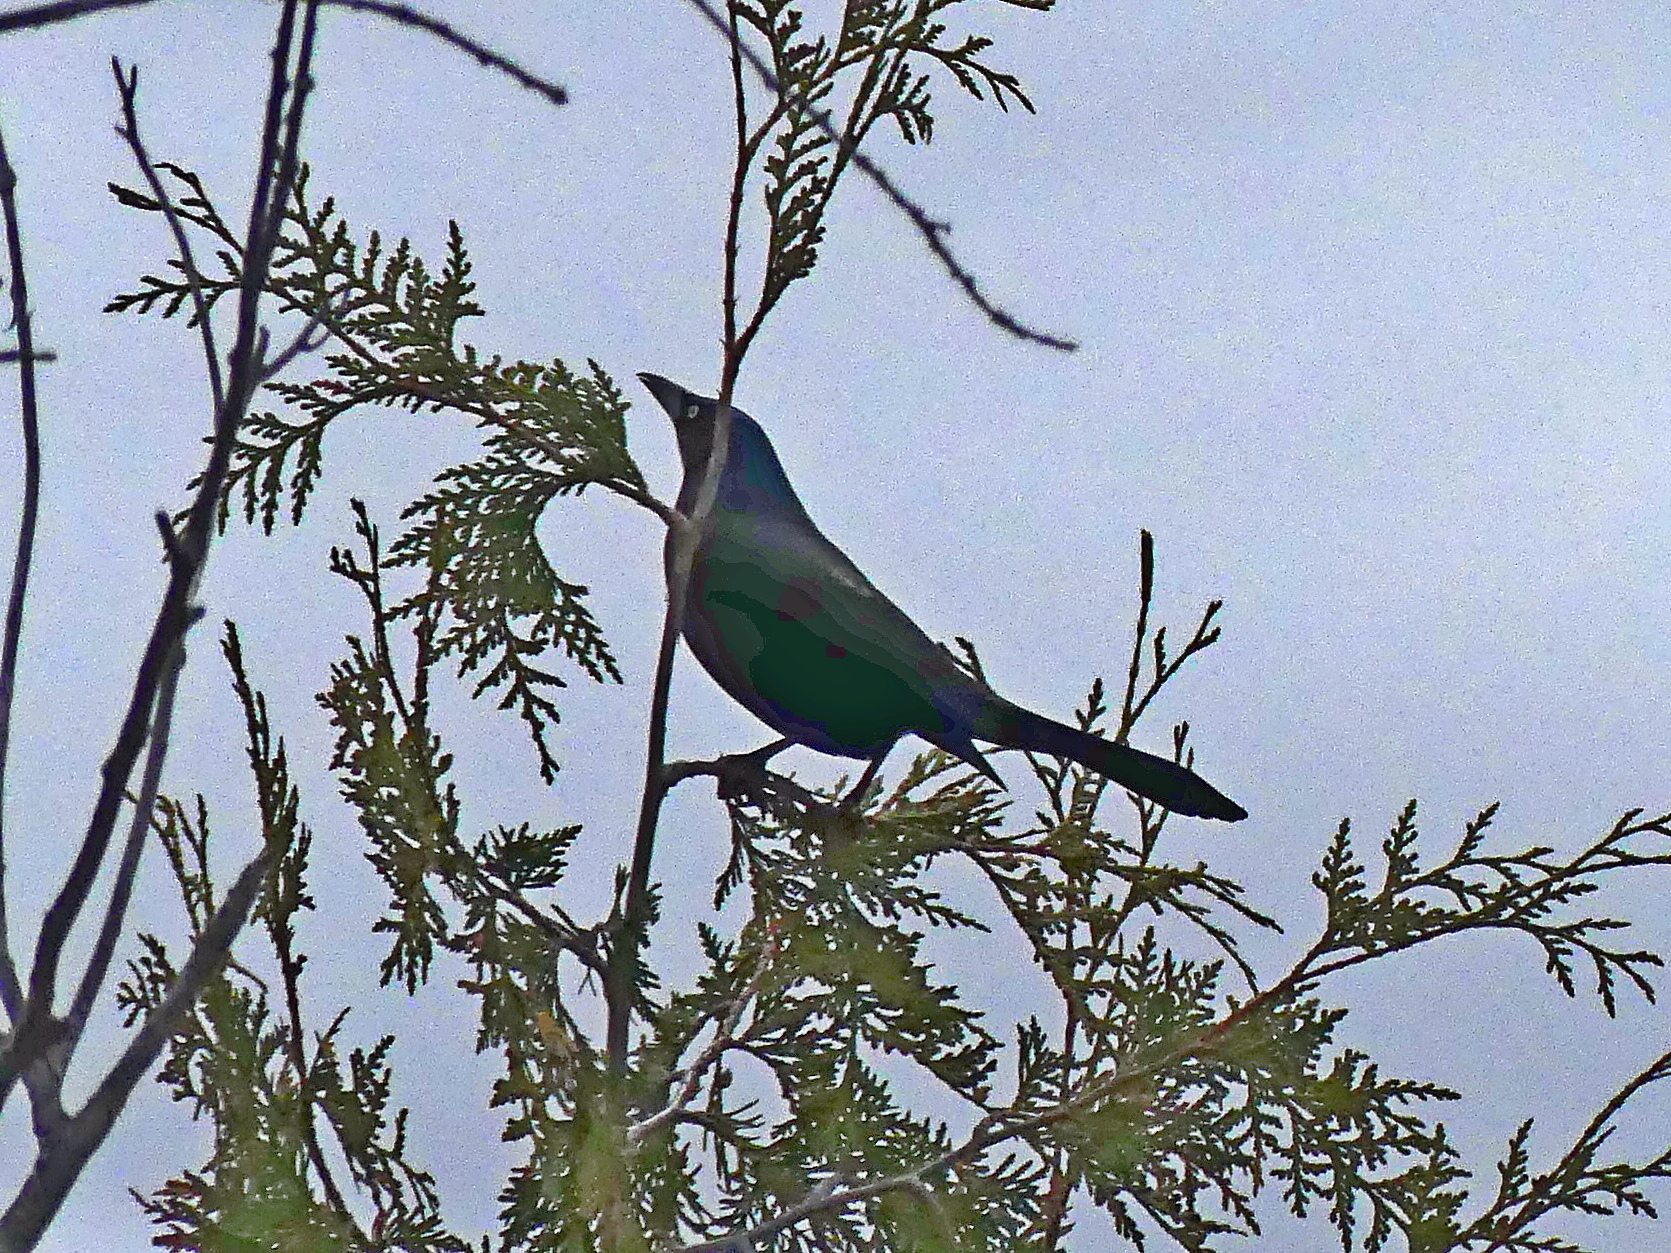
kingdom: Animalia
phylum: Chordata
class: Aves
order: Passeriformes
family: Icteridae
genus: Quiscalus
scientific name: Quiscalus quiscula
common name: Common grackle
